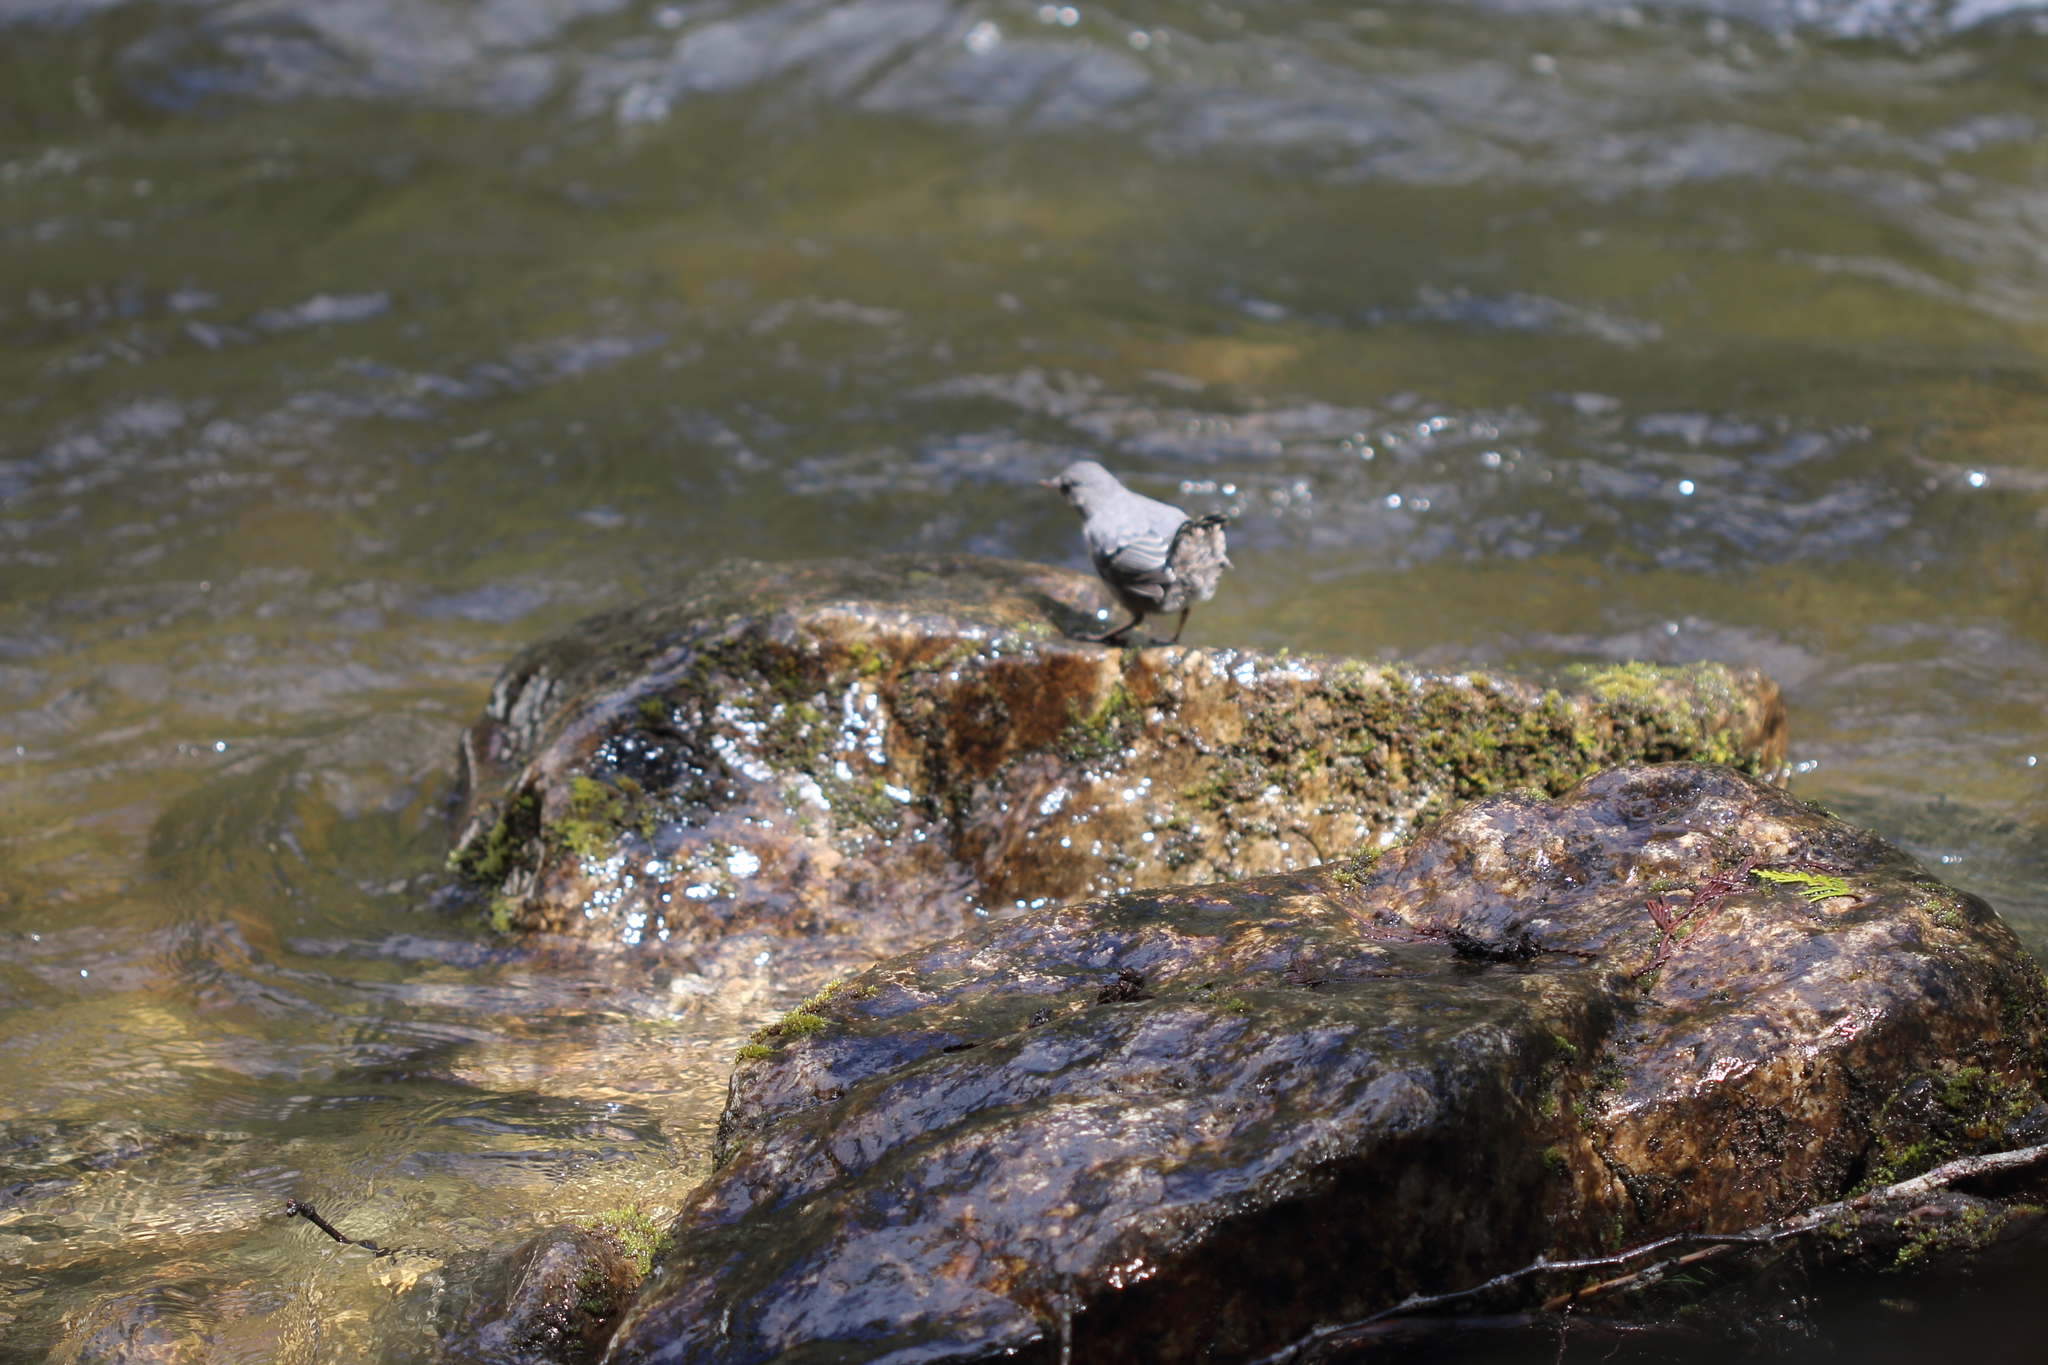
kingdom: Animalia
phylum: Chordata
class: Aves
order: Passeriformes
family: Cinclidae
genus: Cinclus
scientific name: Cinclus mexicanus
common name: American dipper
